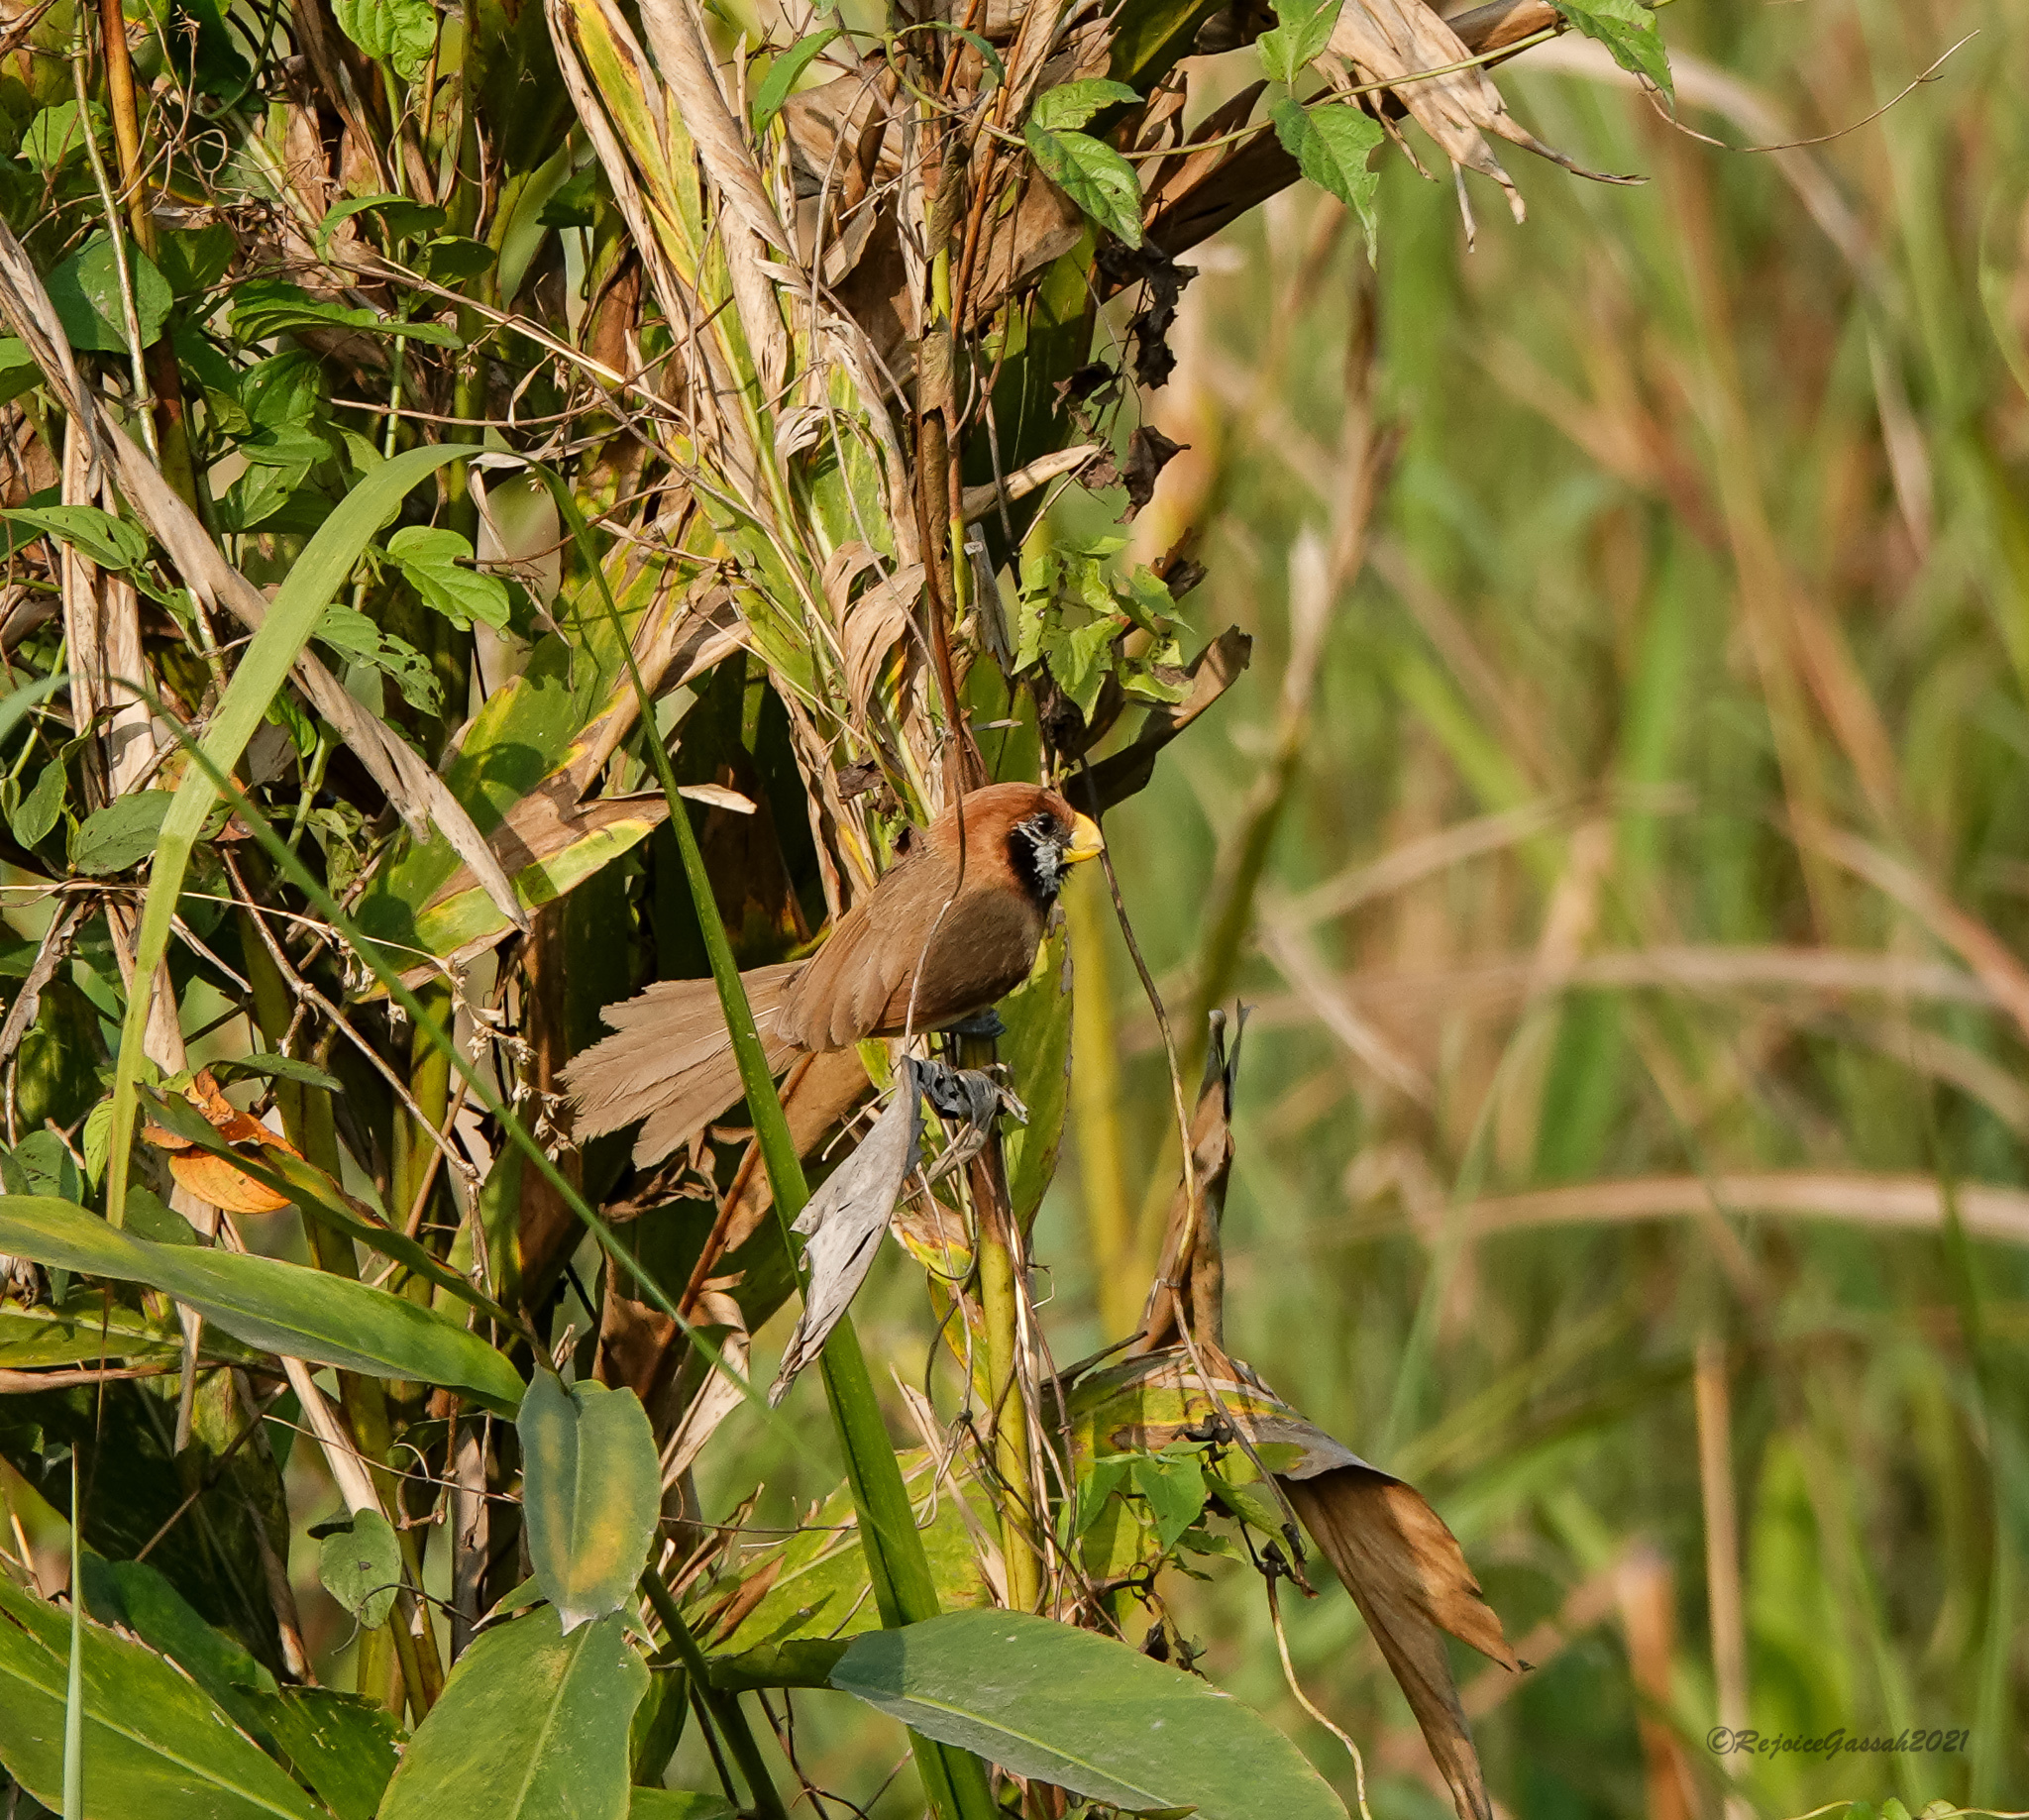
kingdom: Animalia
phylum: Chordata
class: Aves
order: Passeriformes
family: Sylviidae
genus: Paradoxornis
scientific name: Paradoxornis flavirostris
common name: Black-breasted parrotbill
